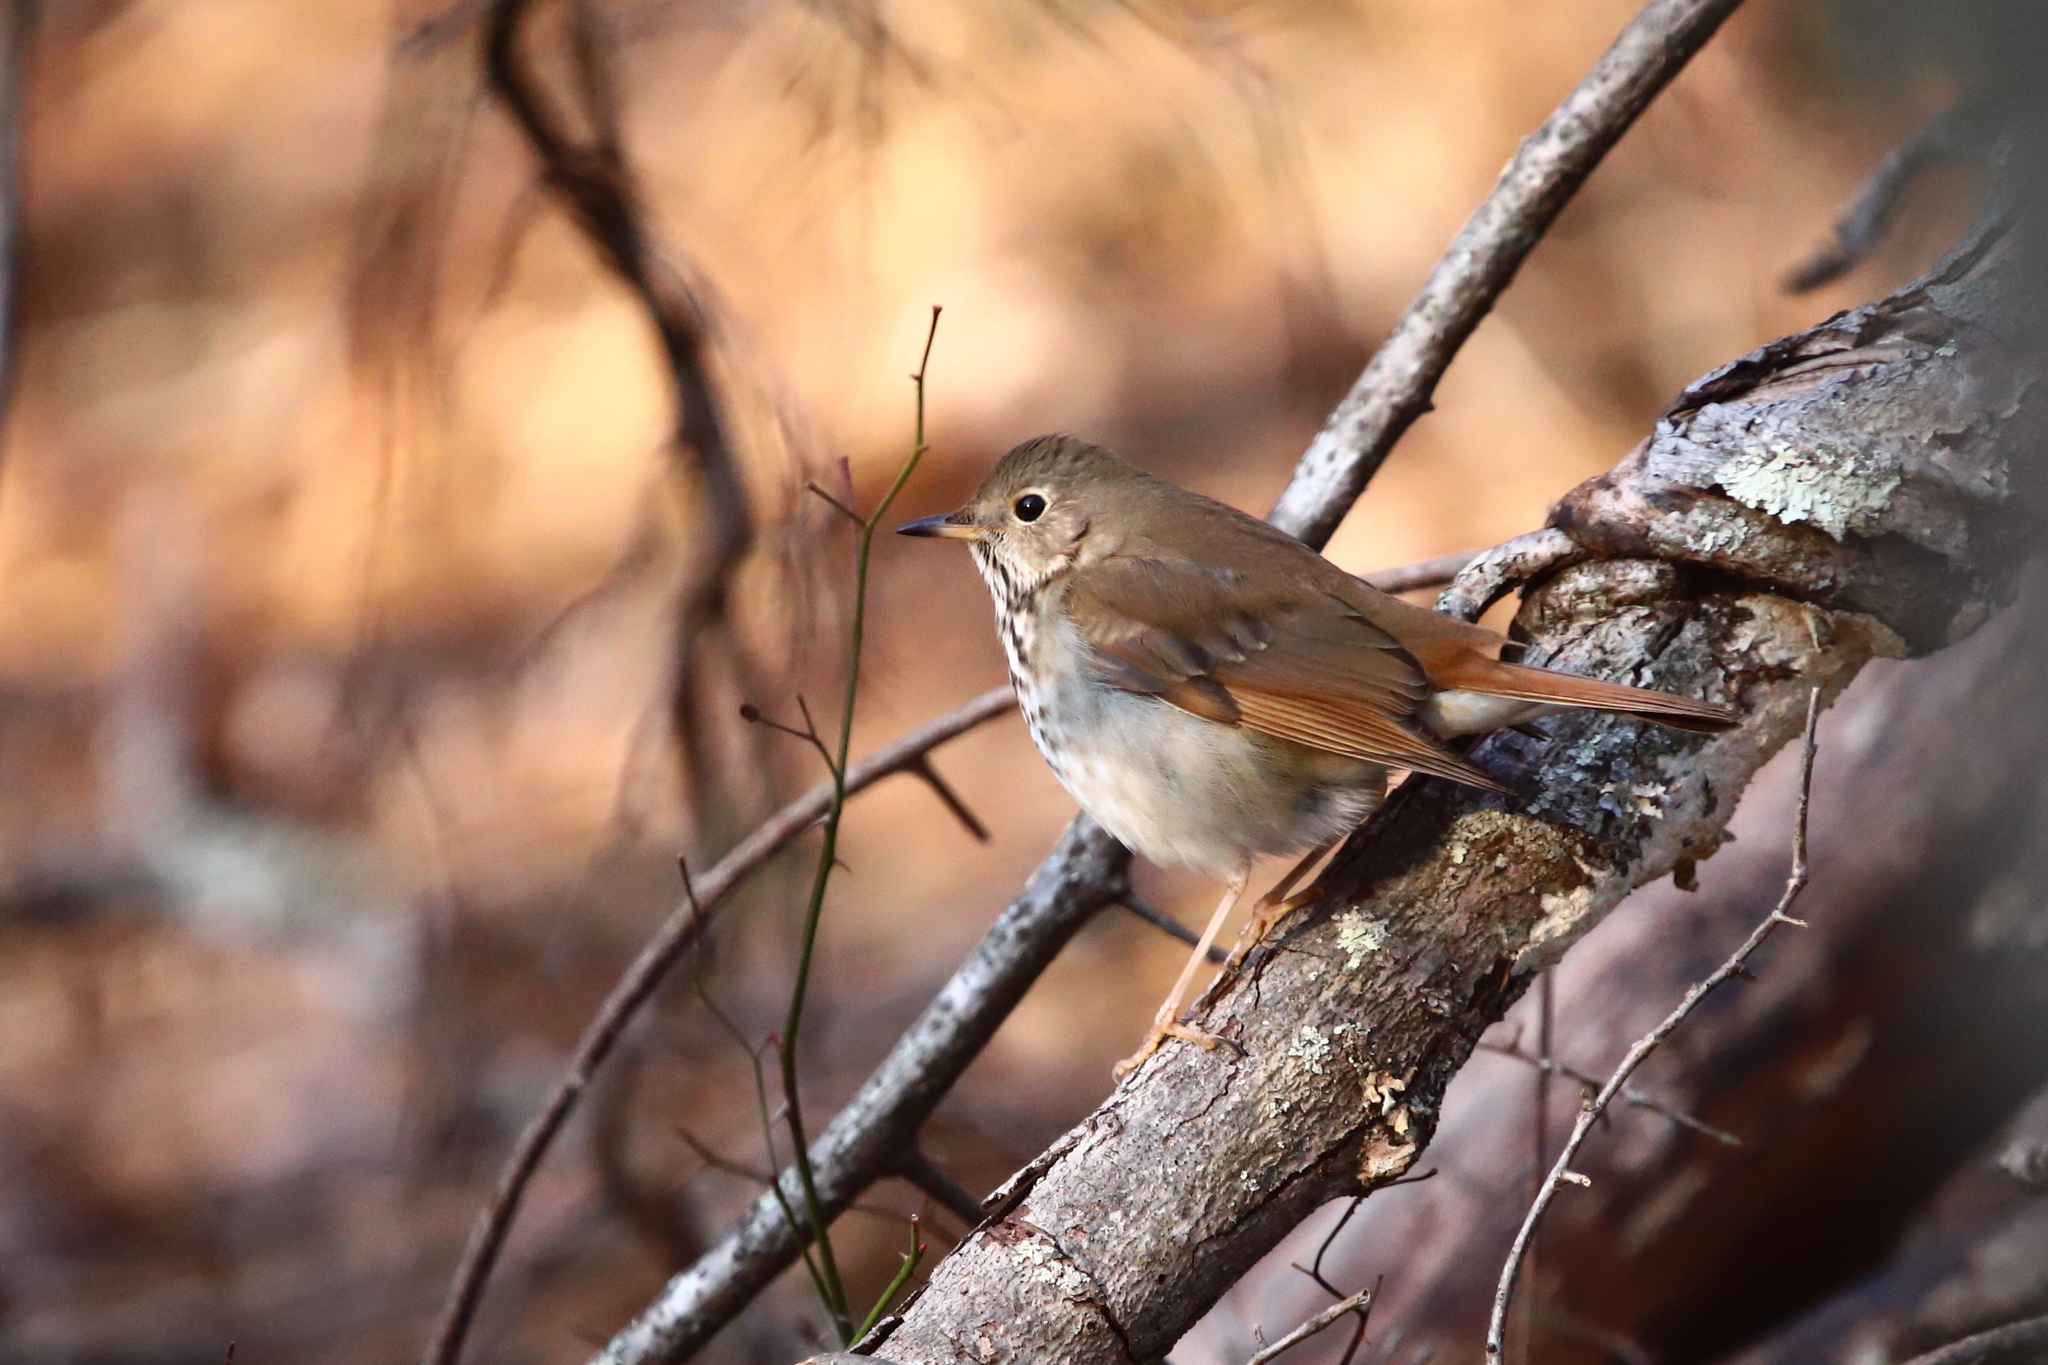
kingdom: Animalia
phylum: Chordata
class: Aves
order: Passeriformes
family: Turdidae
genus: Catharus
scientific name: Catharus guttatus
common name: Hermit thrush
